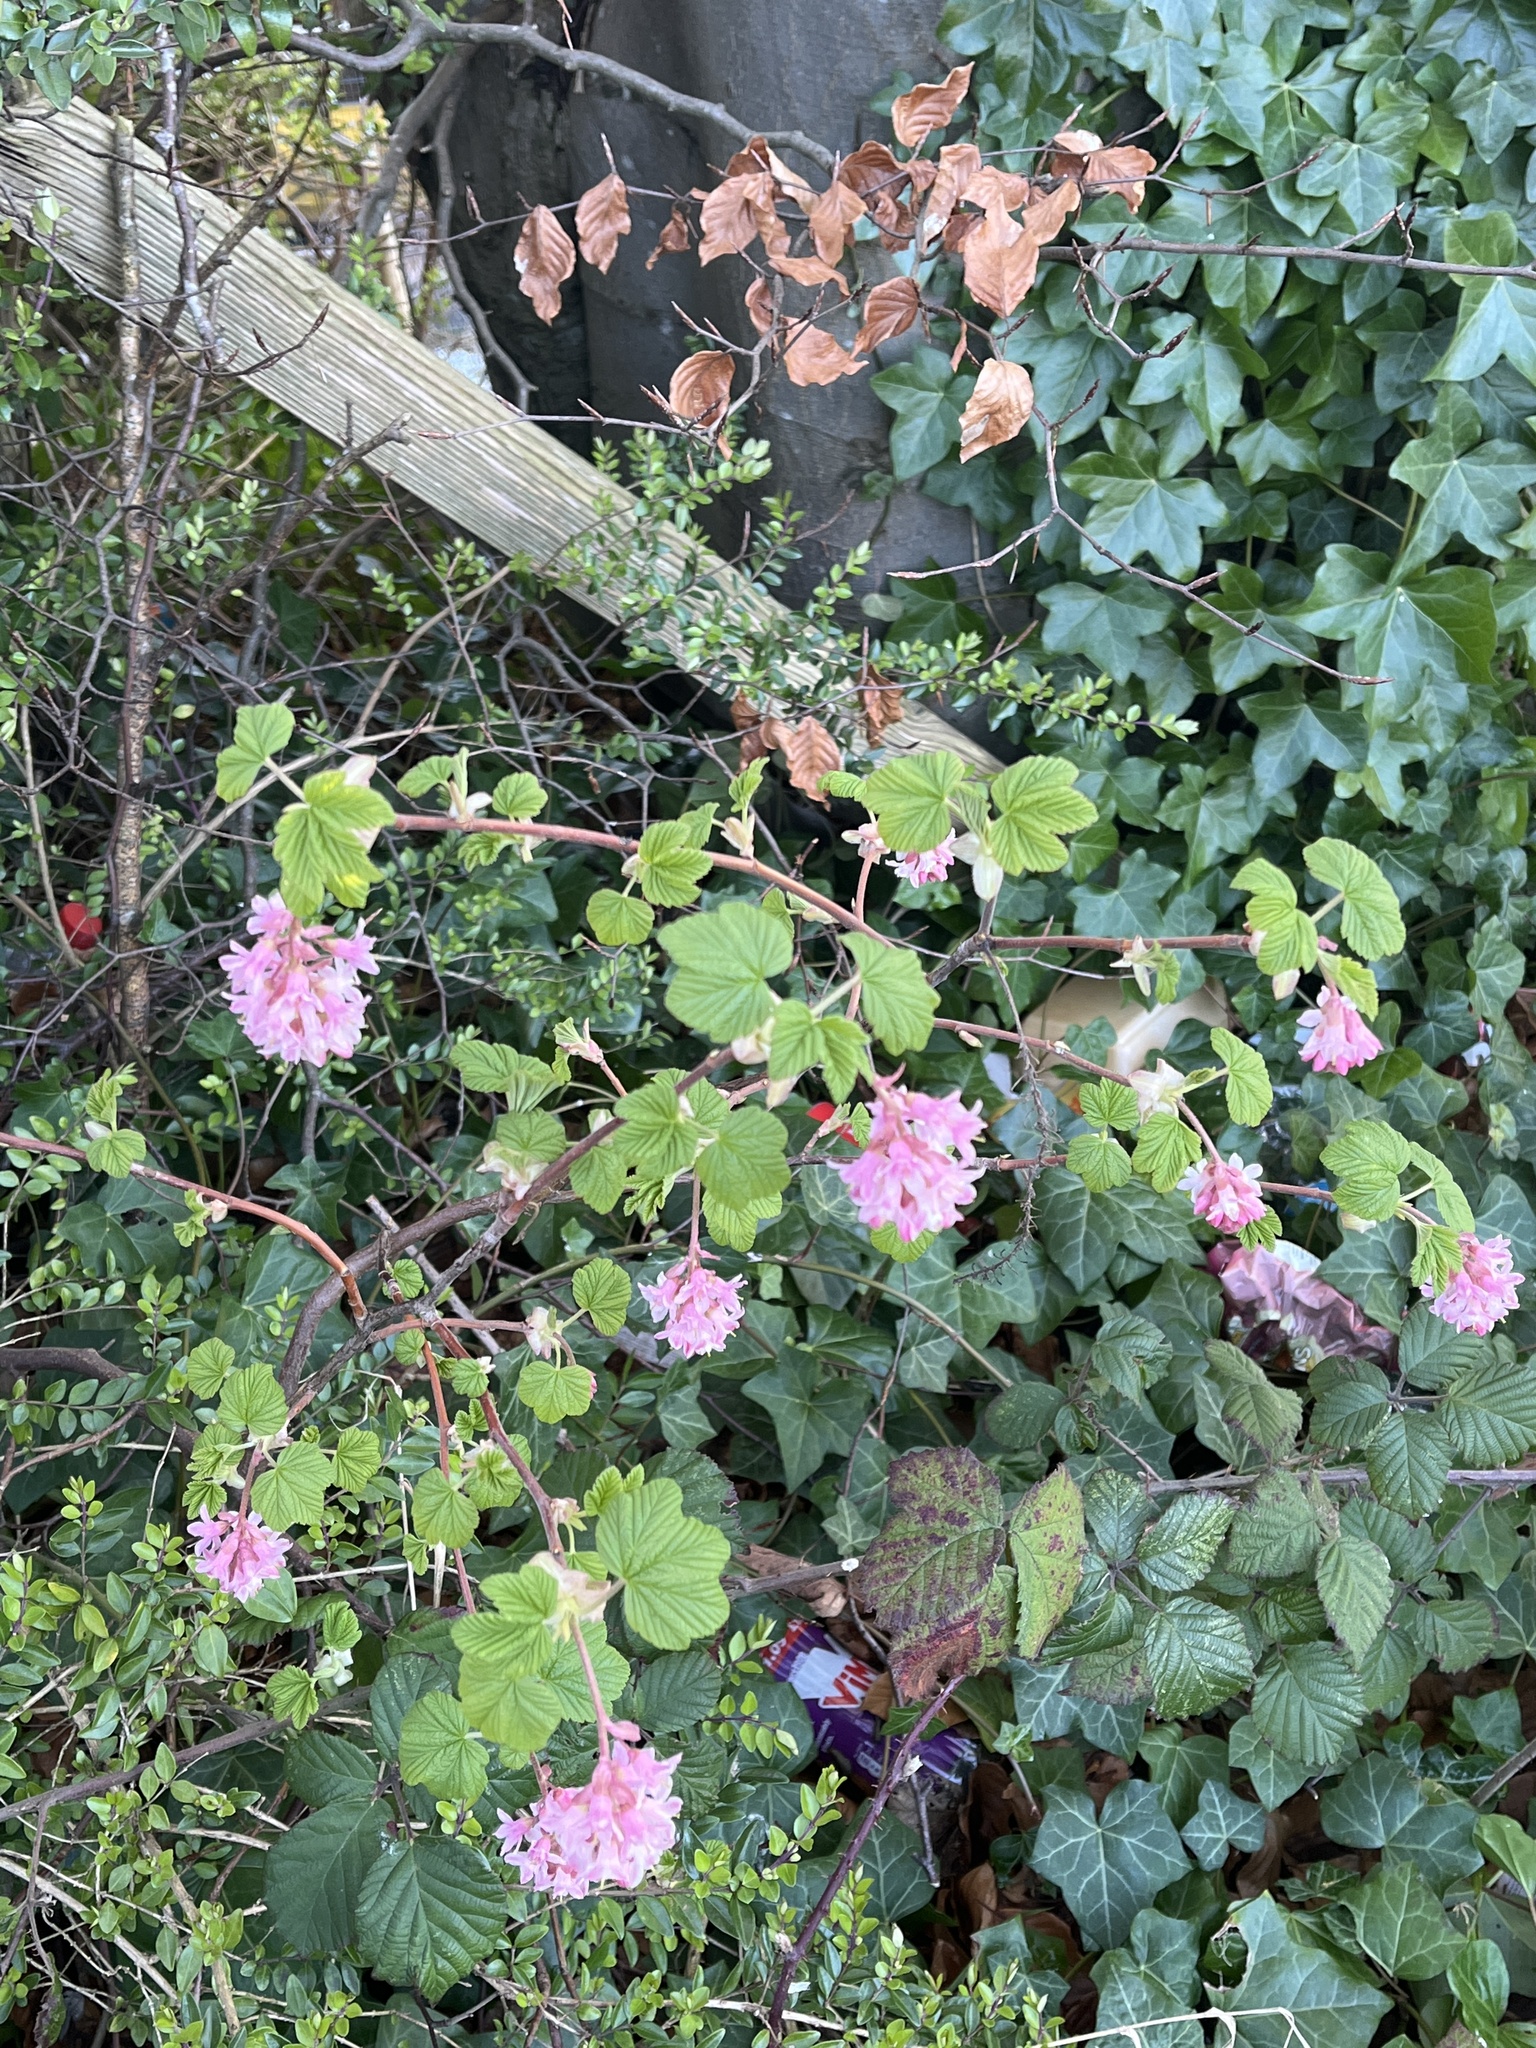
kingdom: Plantae
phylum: Tracheophyta
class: Magnoliopsida
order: Saxifragales
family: Grossulariaceae
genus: Ribes
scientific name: Ribes sanguineum
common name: Flowering currant
